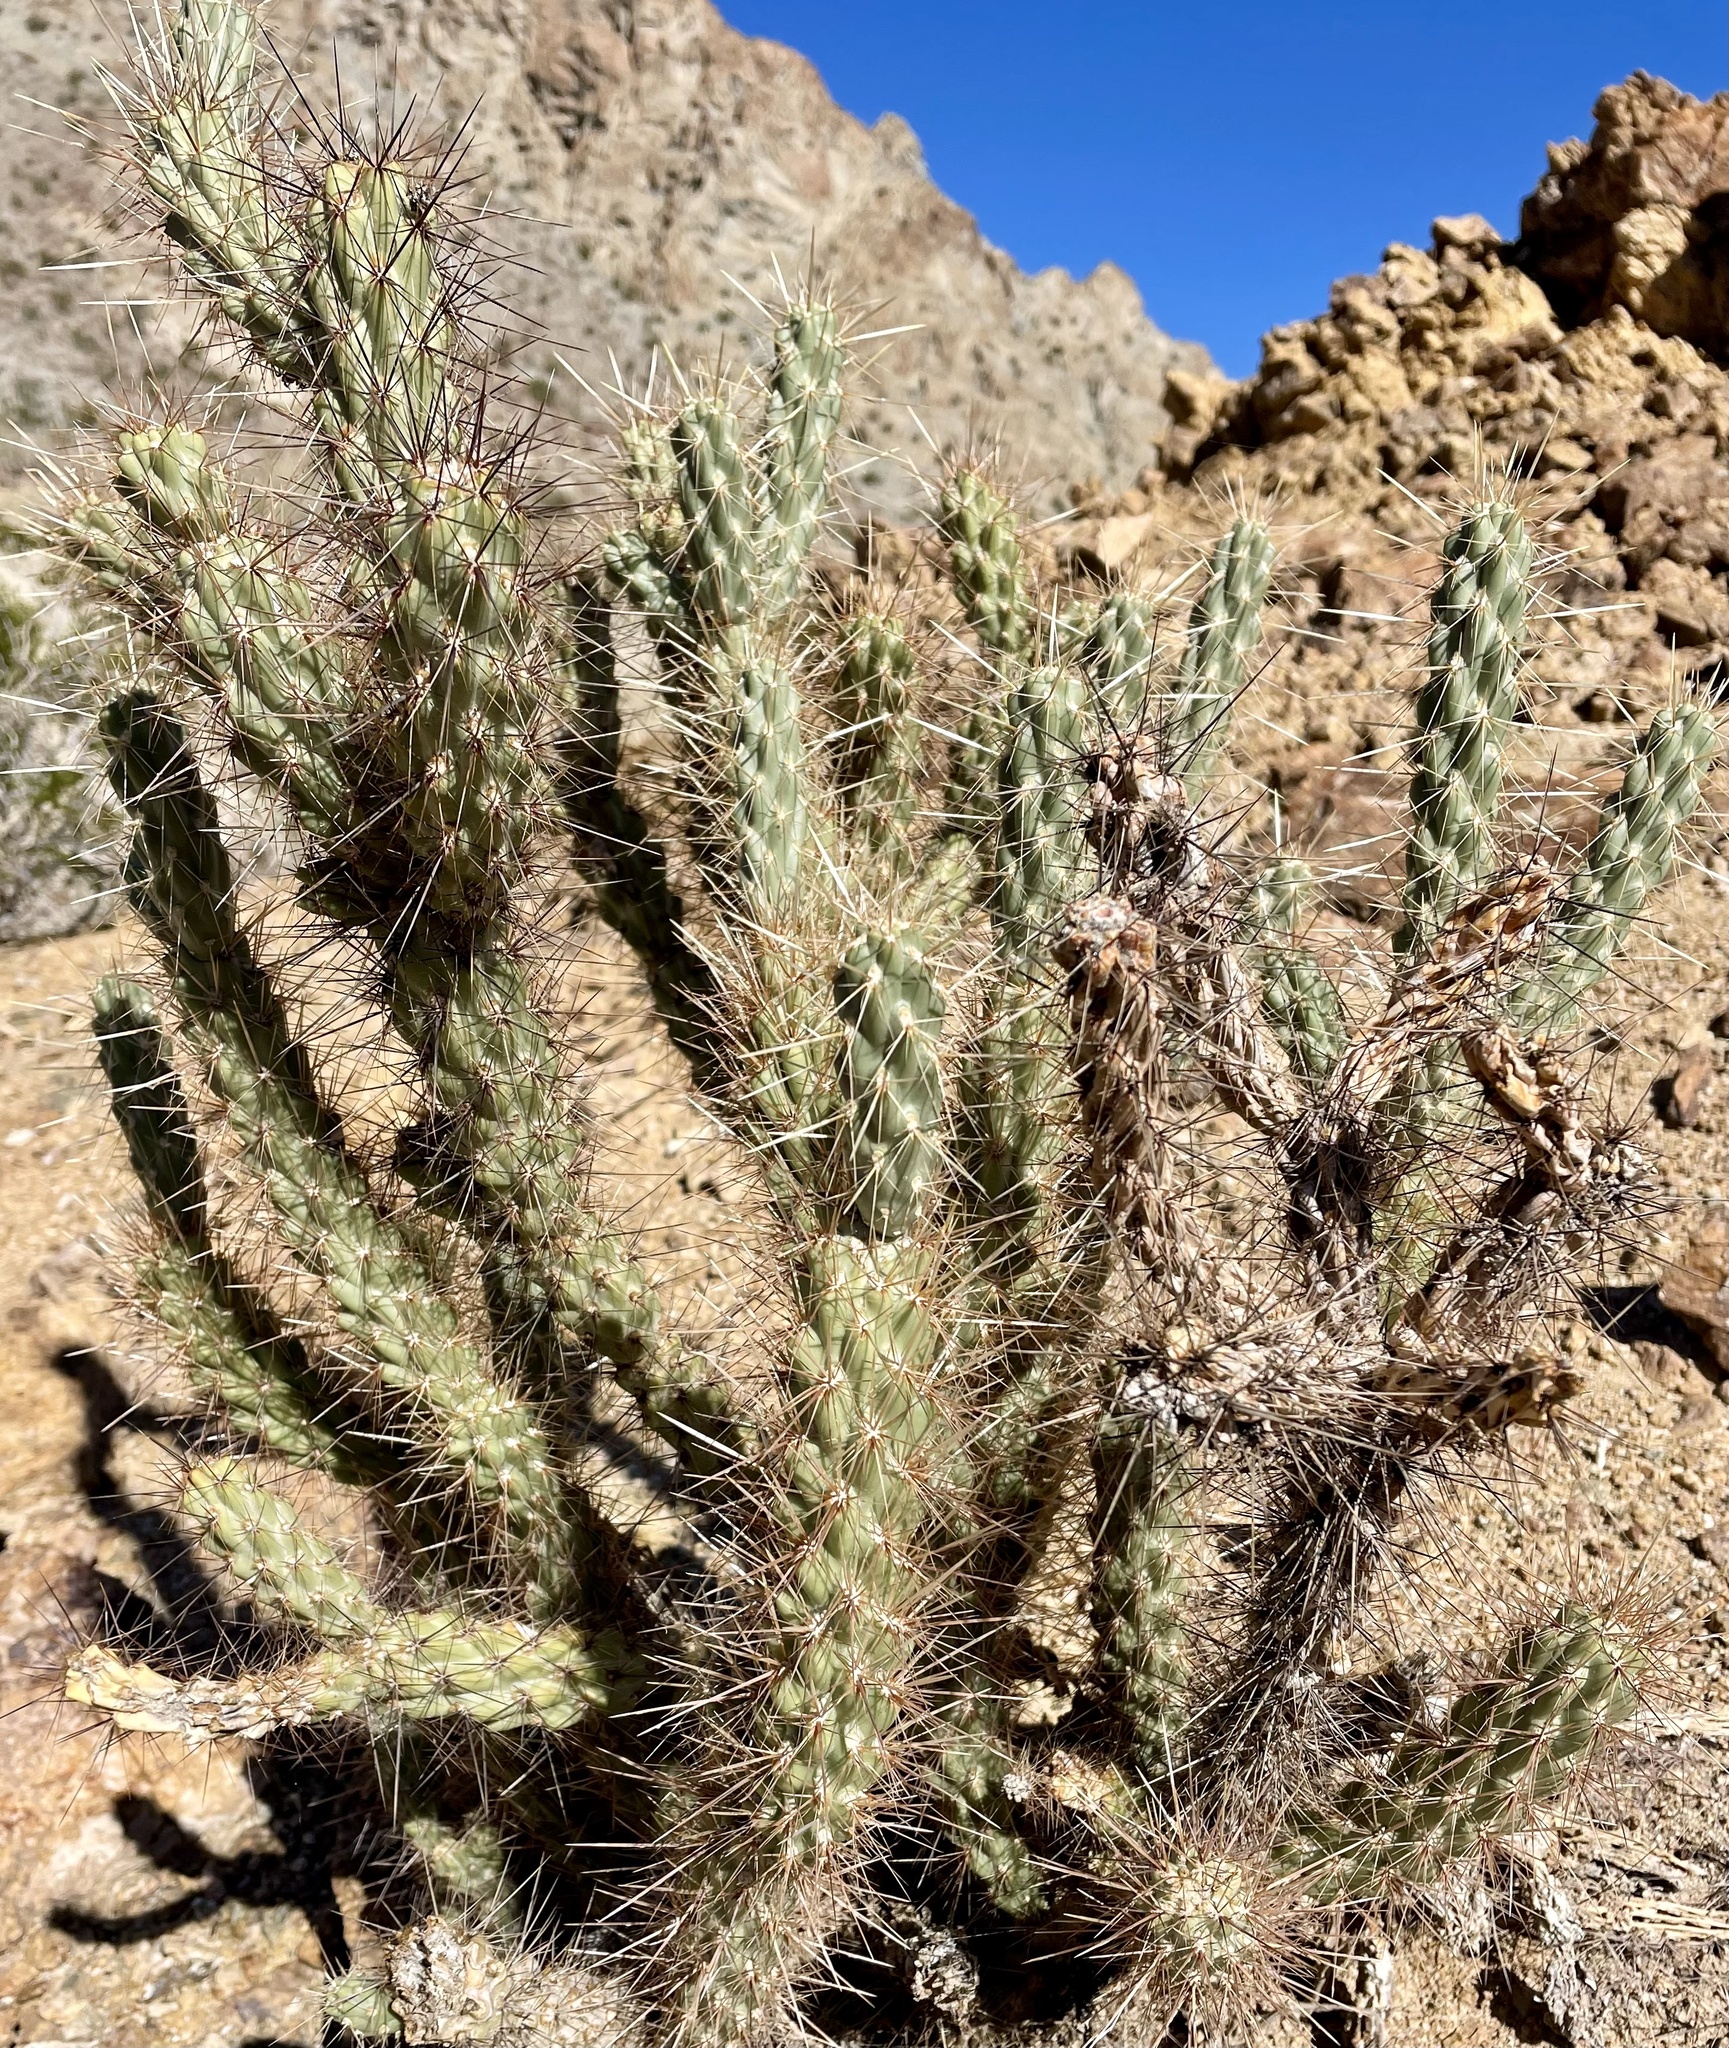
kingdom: Plantae
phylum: Tracheophyta
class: Magnoliopsida
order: Caryophyllales
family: Cactaceae
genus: Cylindropuntia
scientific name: Cylindropuntia ganderi
